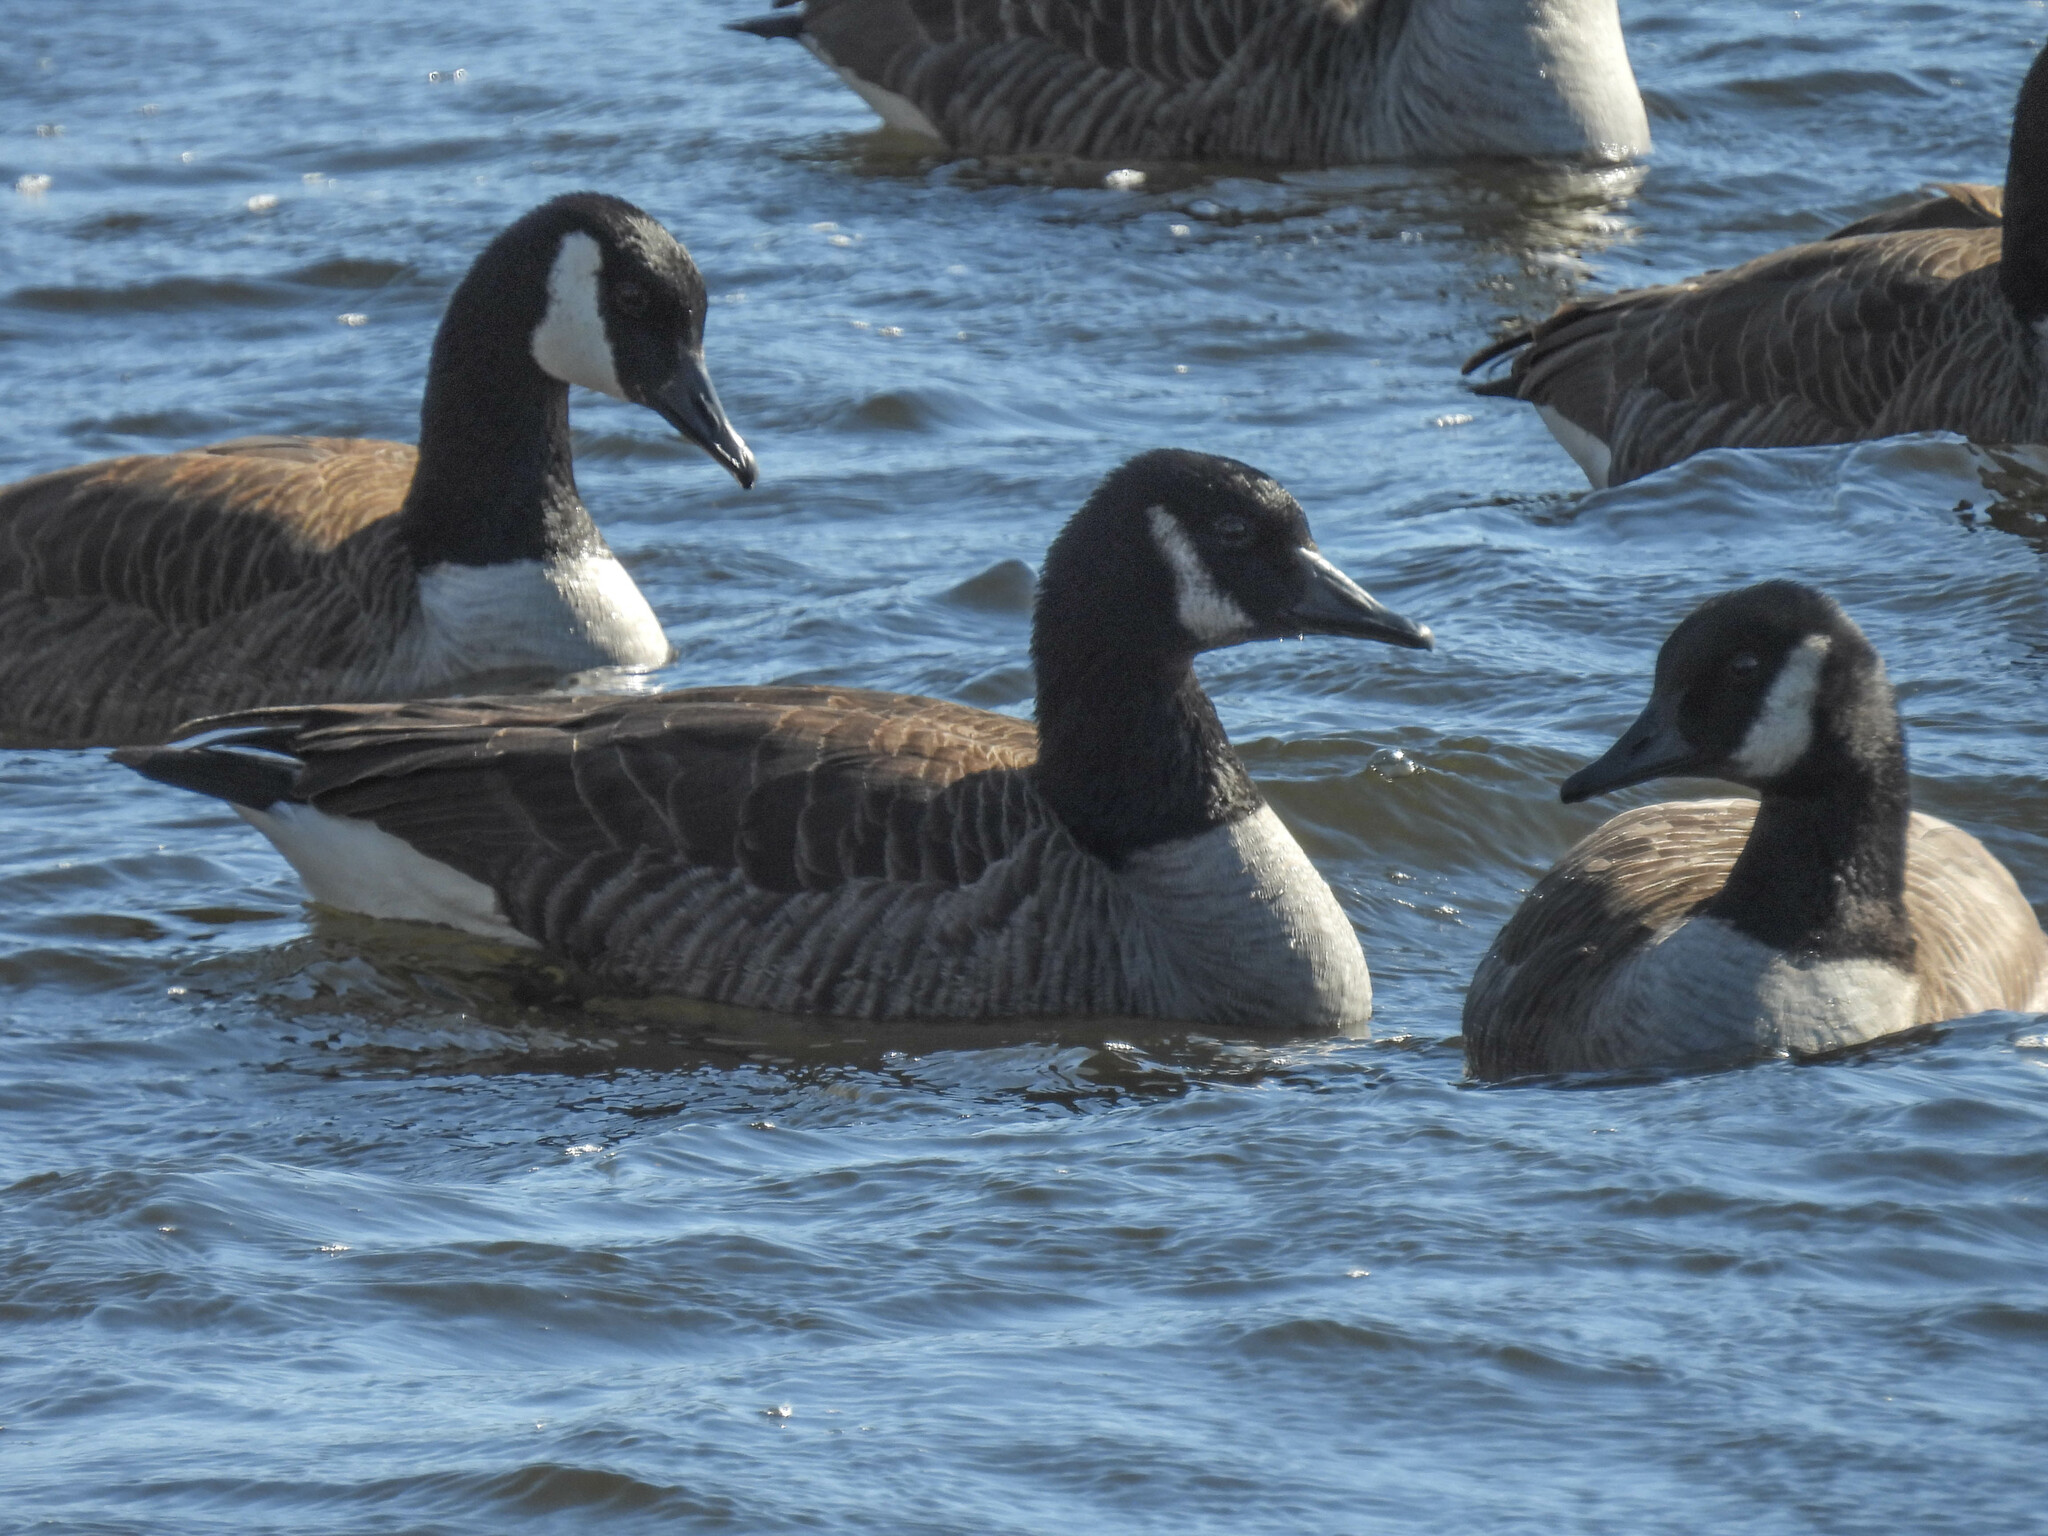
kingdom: Animalia
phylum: Chordata
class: Aves
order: Anseriformes
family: Anatidae
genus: Branta
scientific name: Branta canadensis
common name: Canada goose
